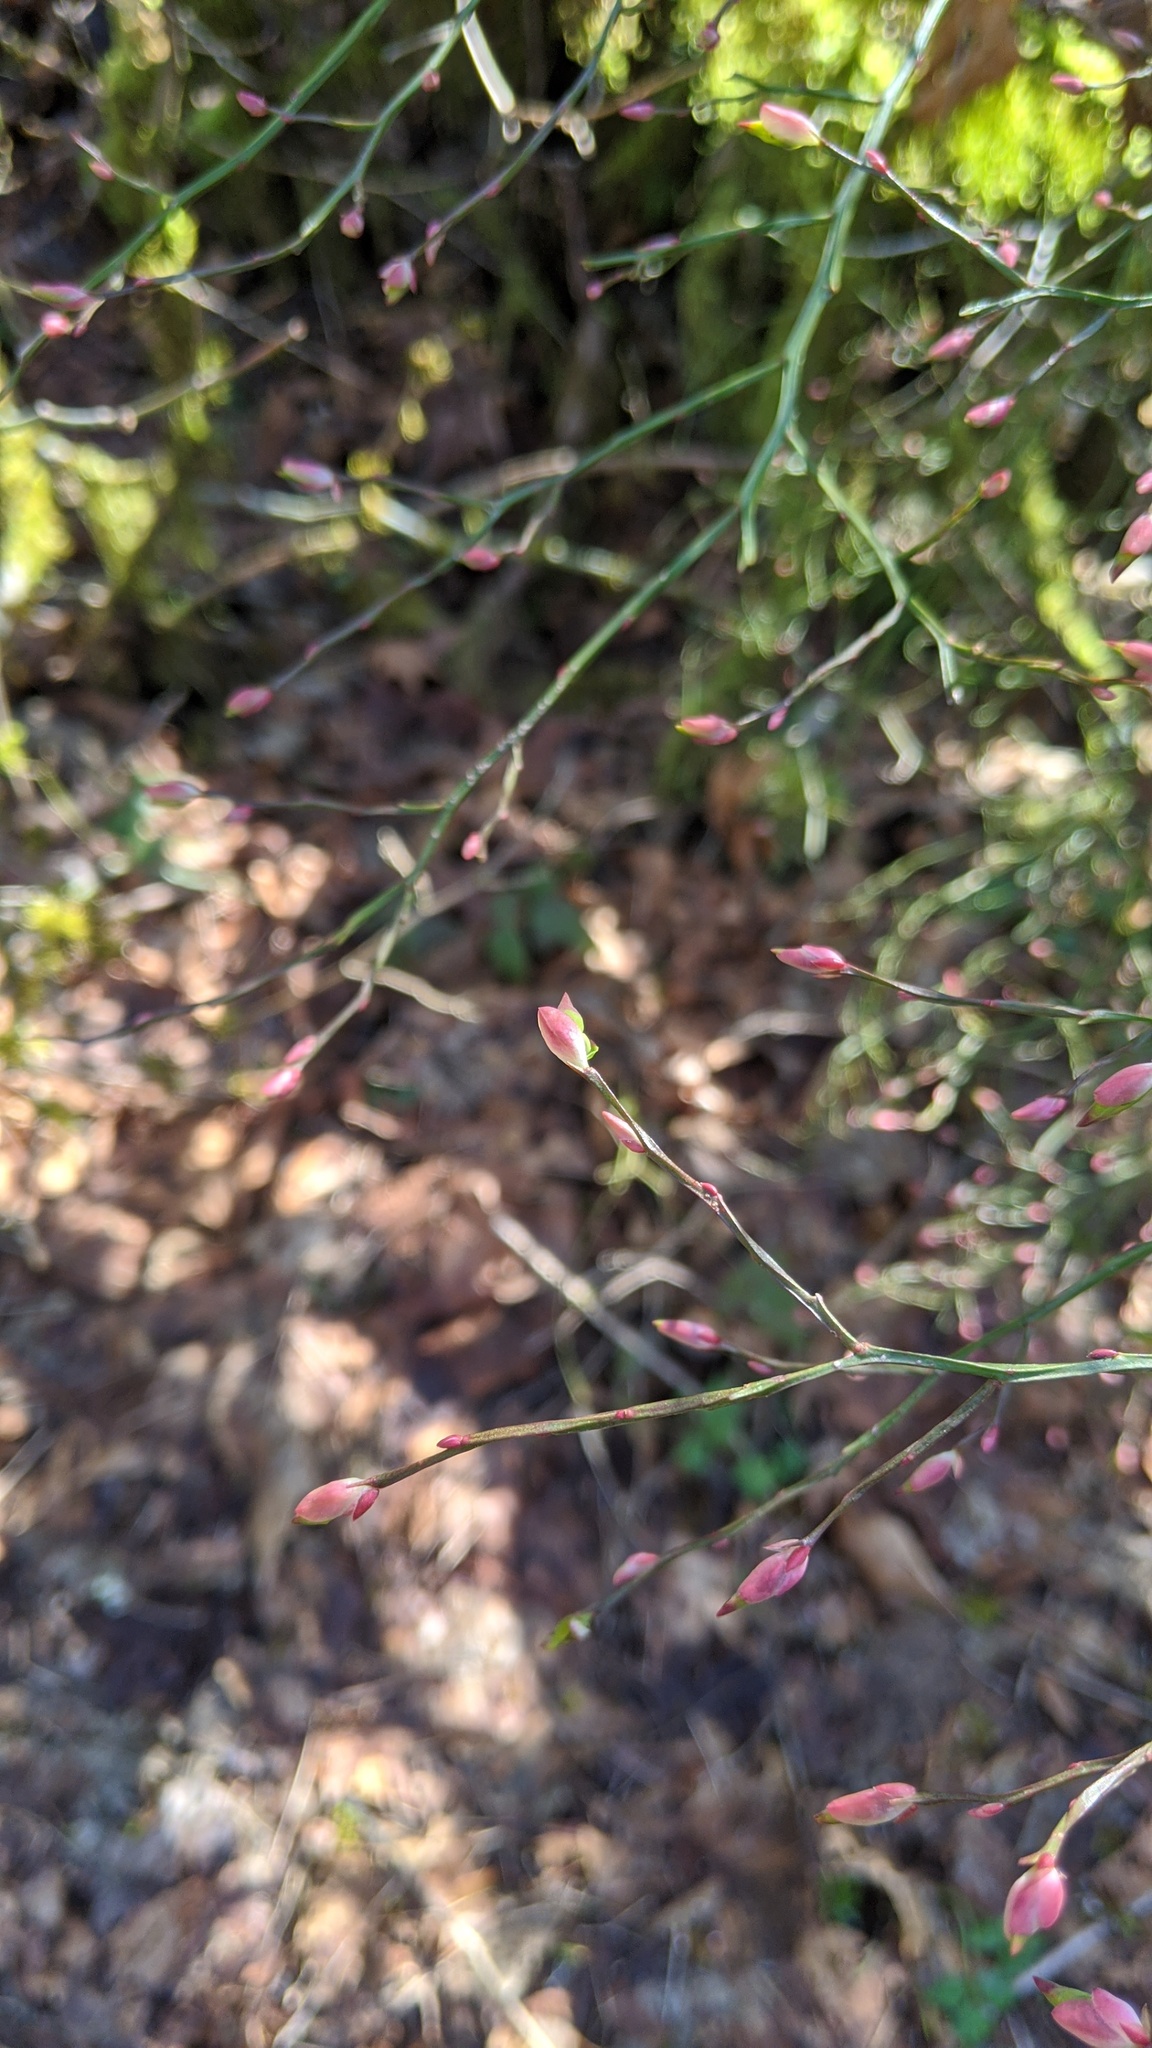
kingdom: Plantae
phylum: Tracheophyta
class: Magnoliopsida
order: Ericales
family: Ericaceae
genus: Vaccinium
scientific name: Vaccinium parvifolium
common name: Red-huckleberry
